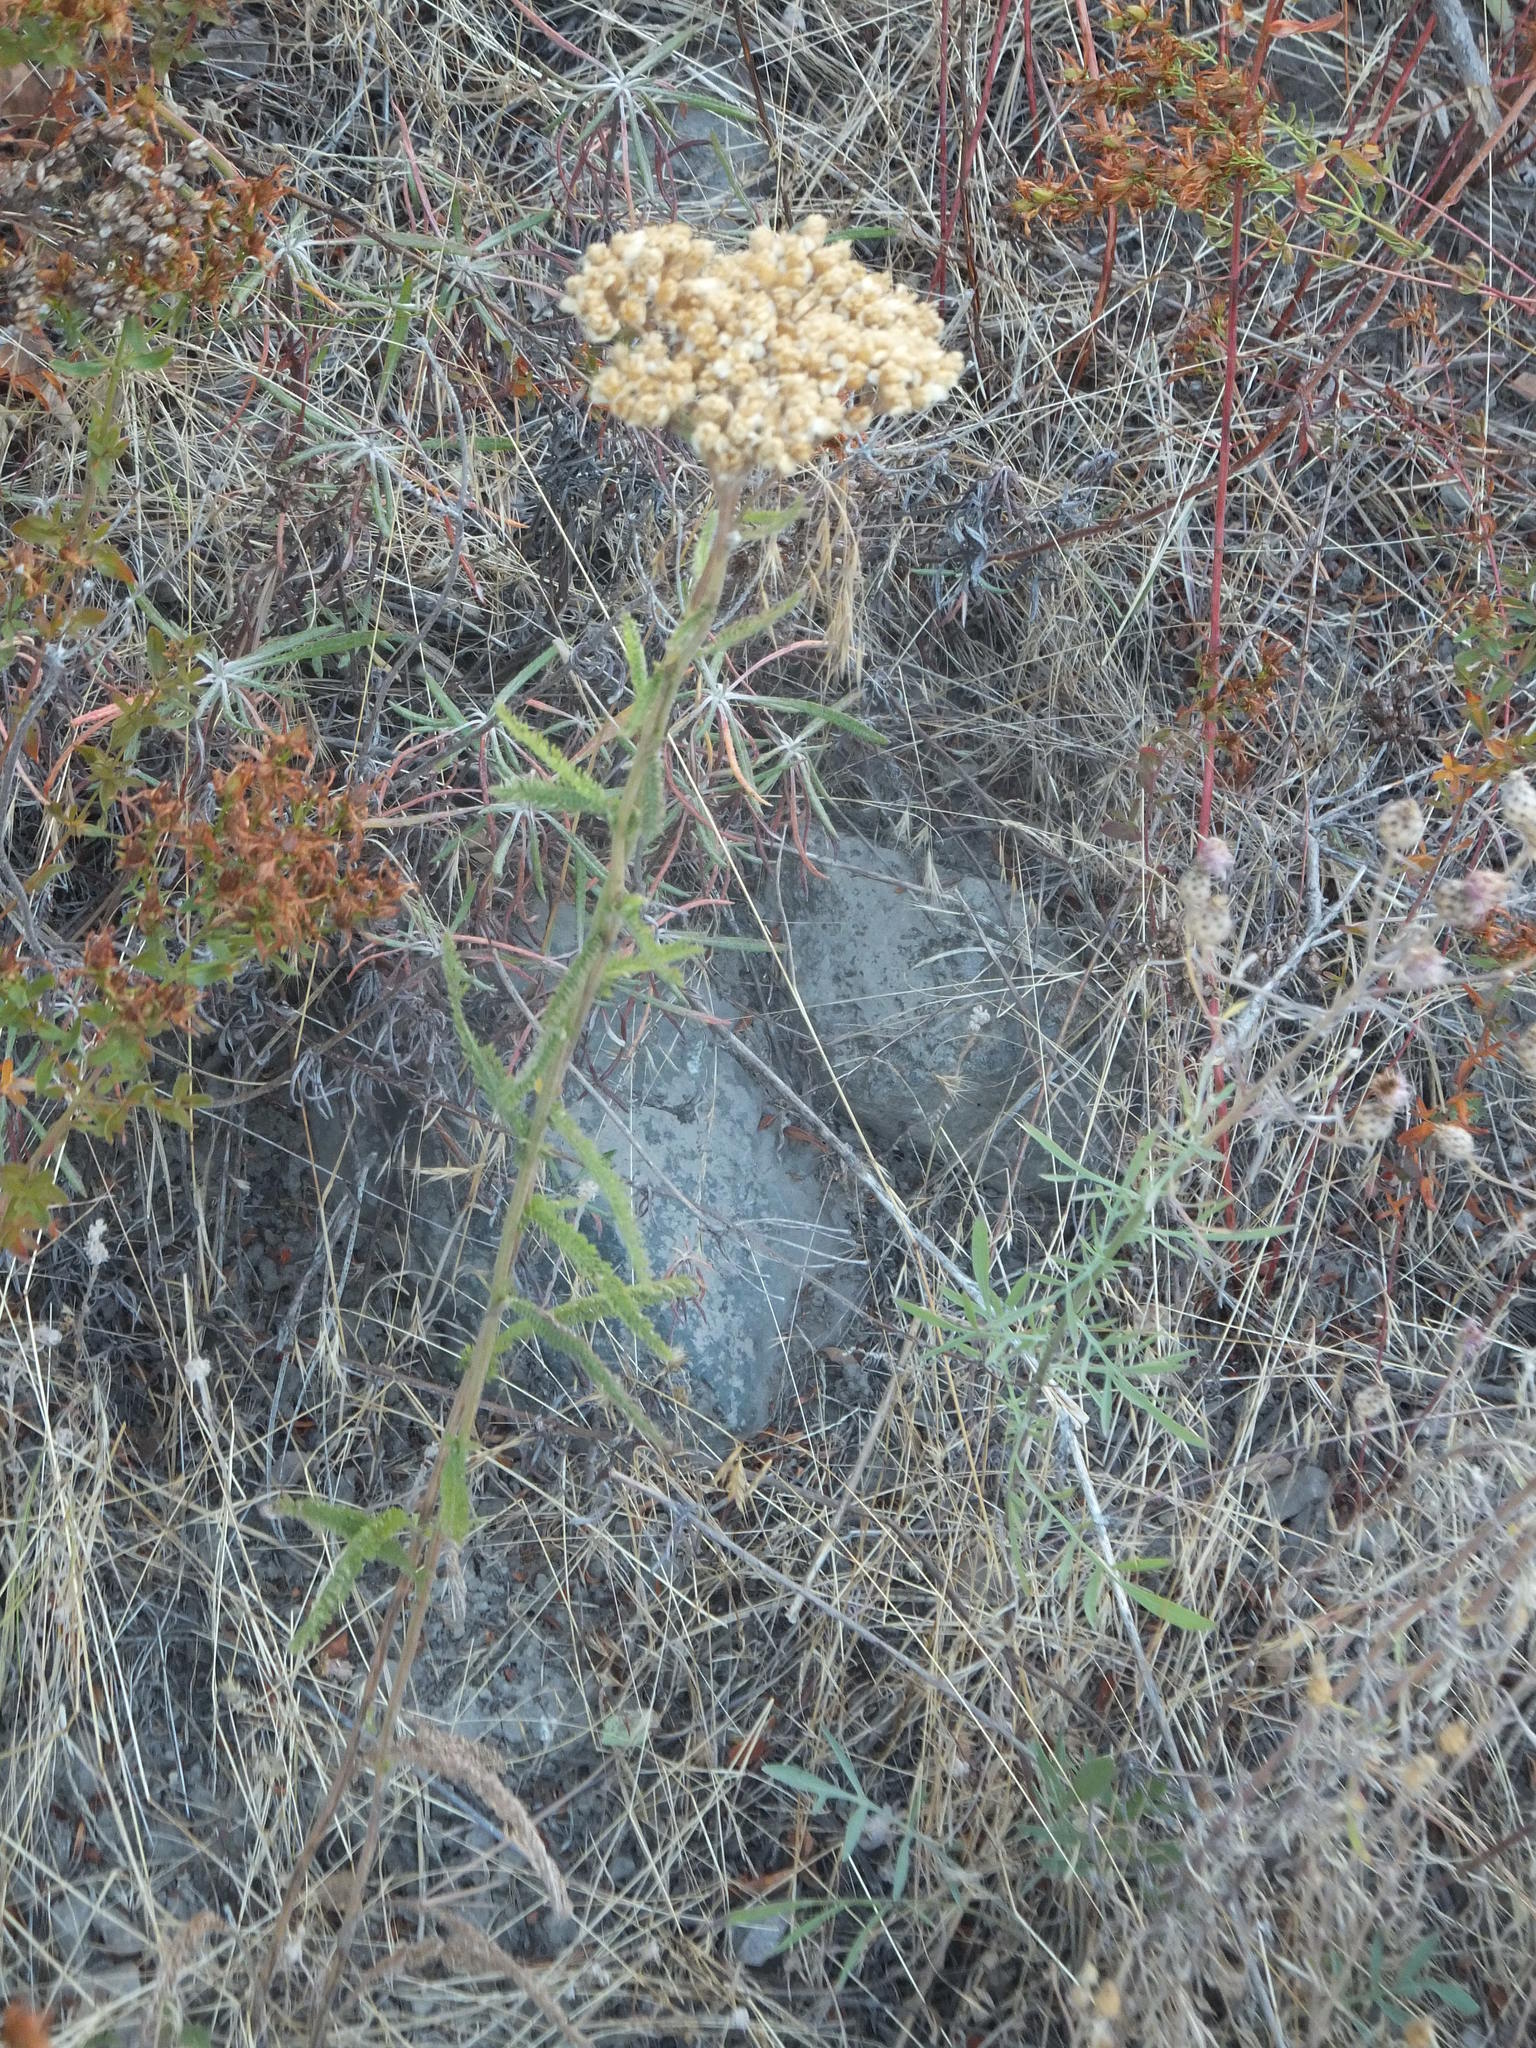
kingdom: Plantae
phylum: Tracheophyta
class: Magnoliopsida
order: Asterales
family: Asteraceae
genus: Achillea
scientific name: Achillea millefolium
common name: Yarrow
